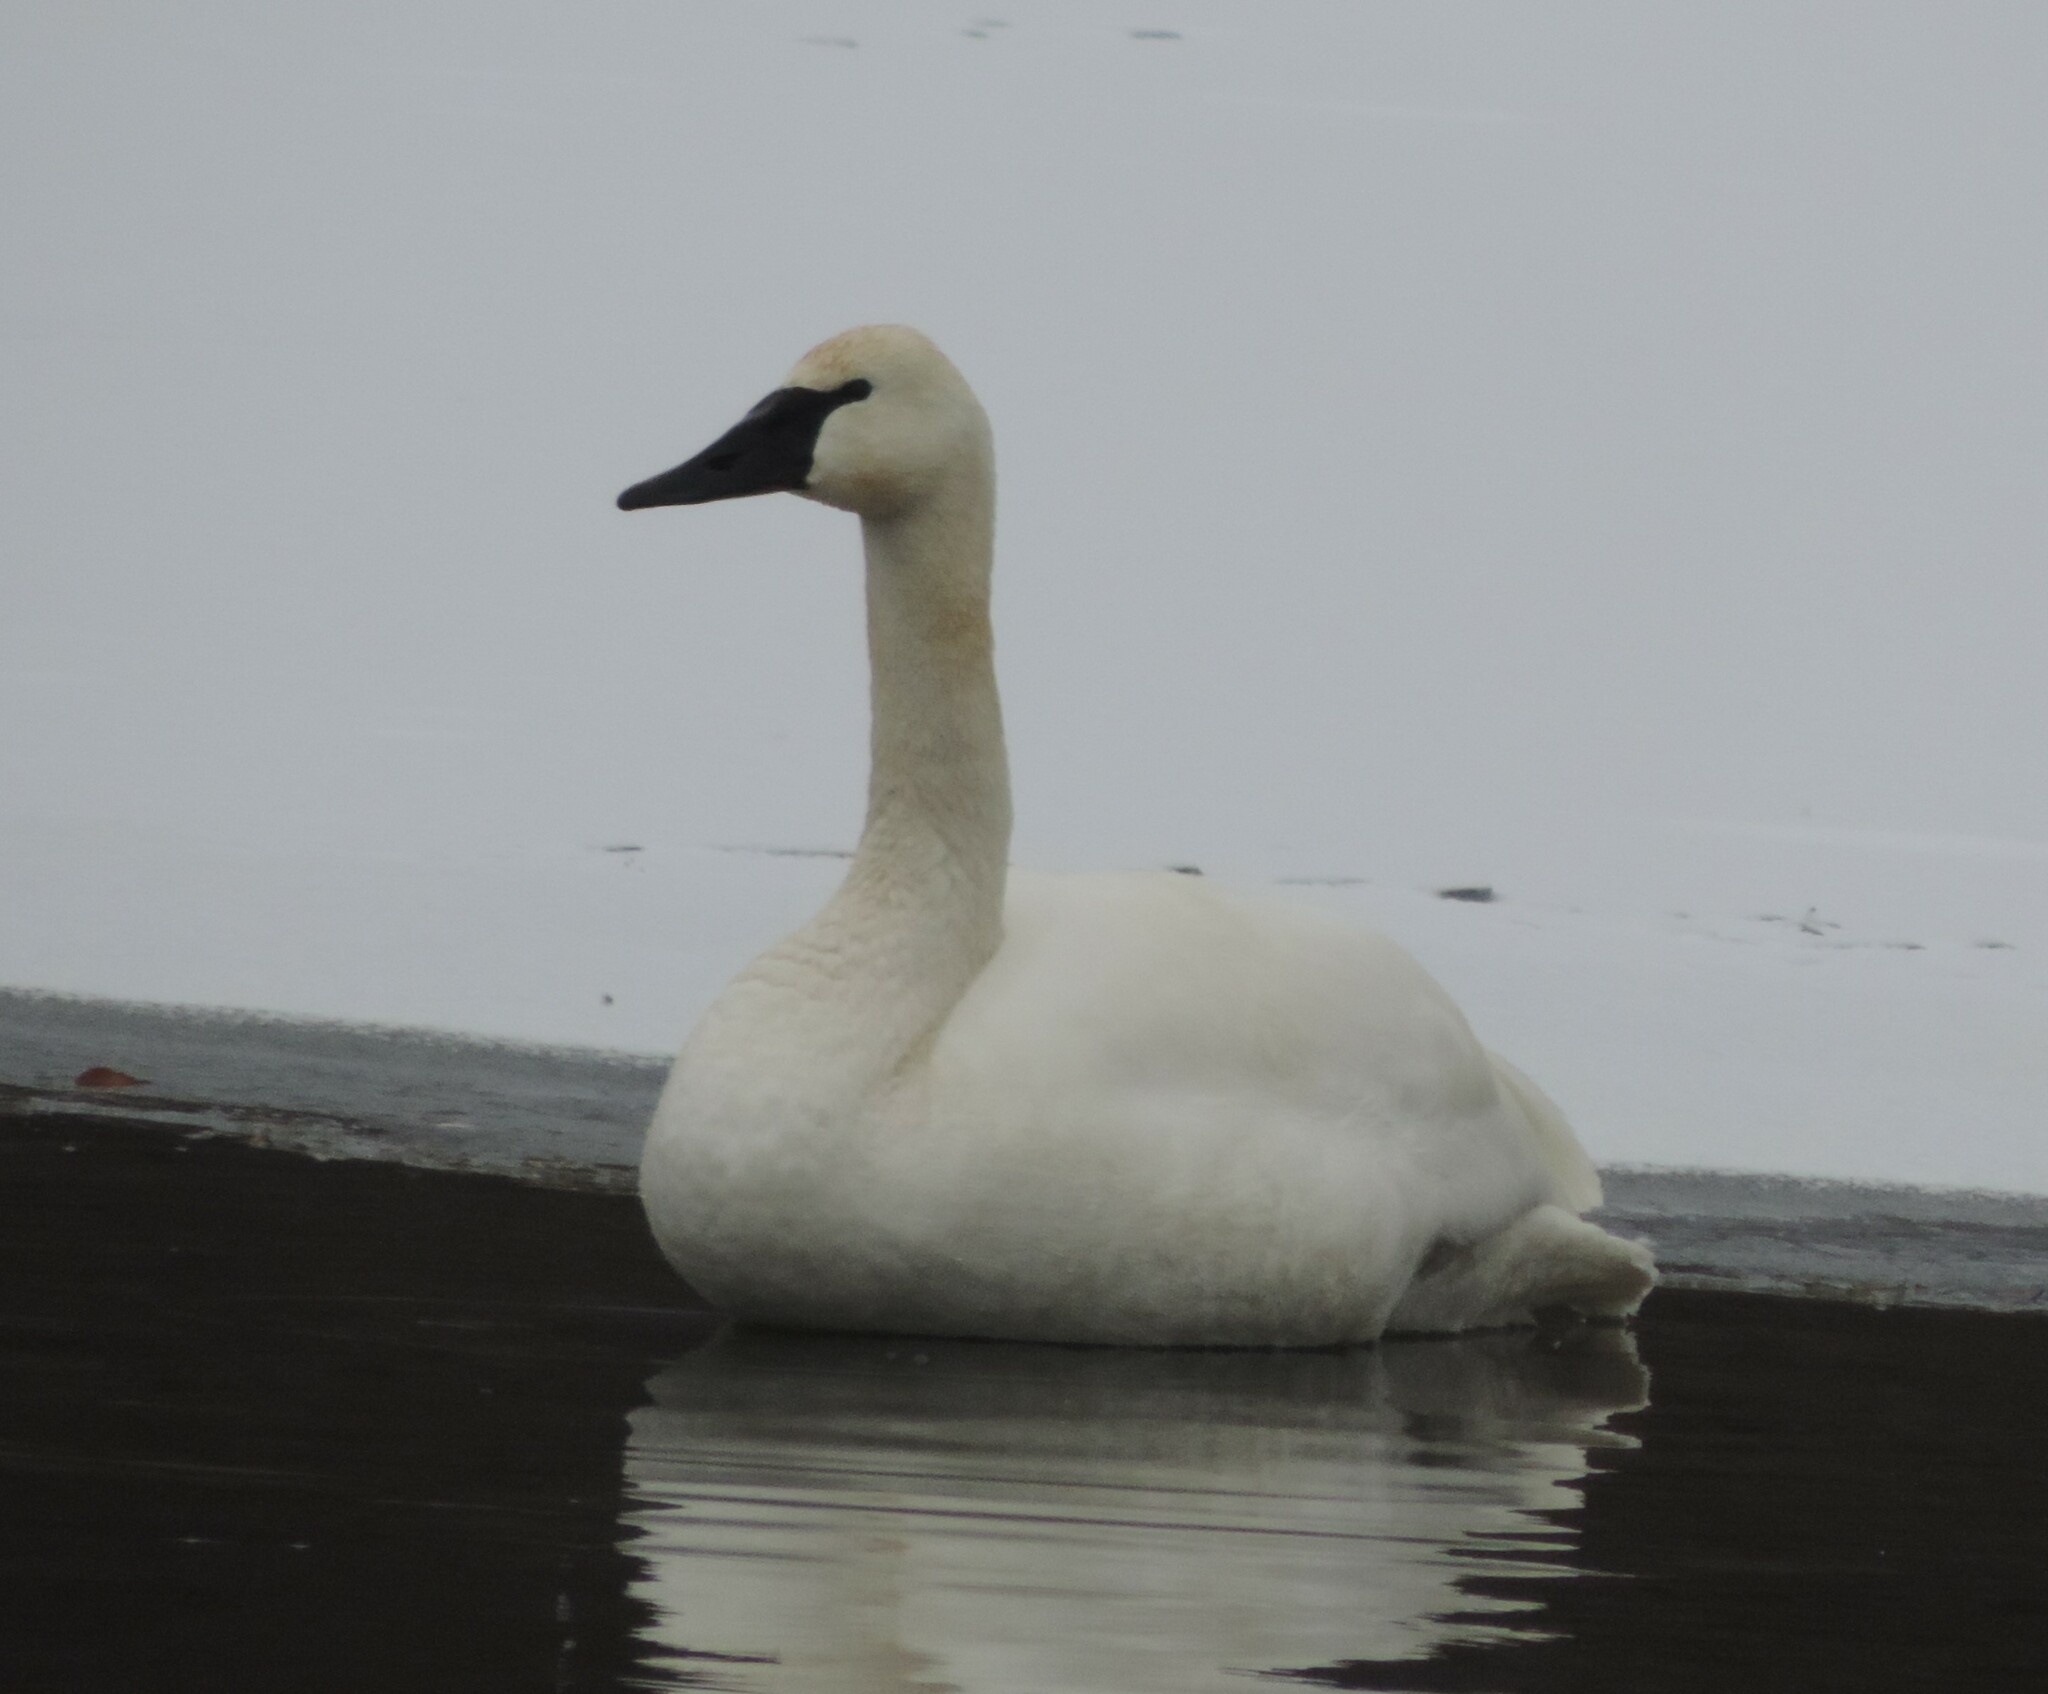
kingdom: Animalia
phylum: Chordata
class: Aves
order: Anseriformes
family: Anatidae
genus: Cygnus
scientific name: Cygnus buccinator
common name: Trumpeter swan
